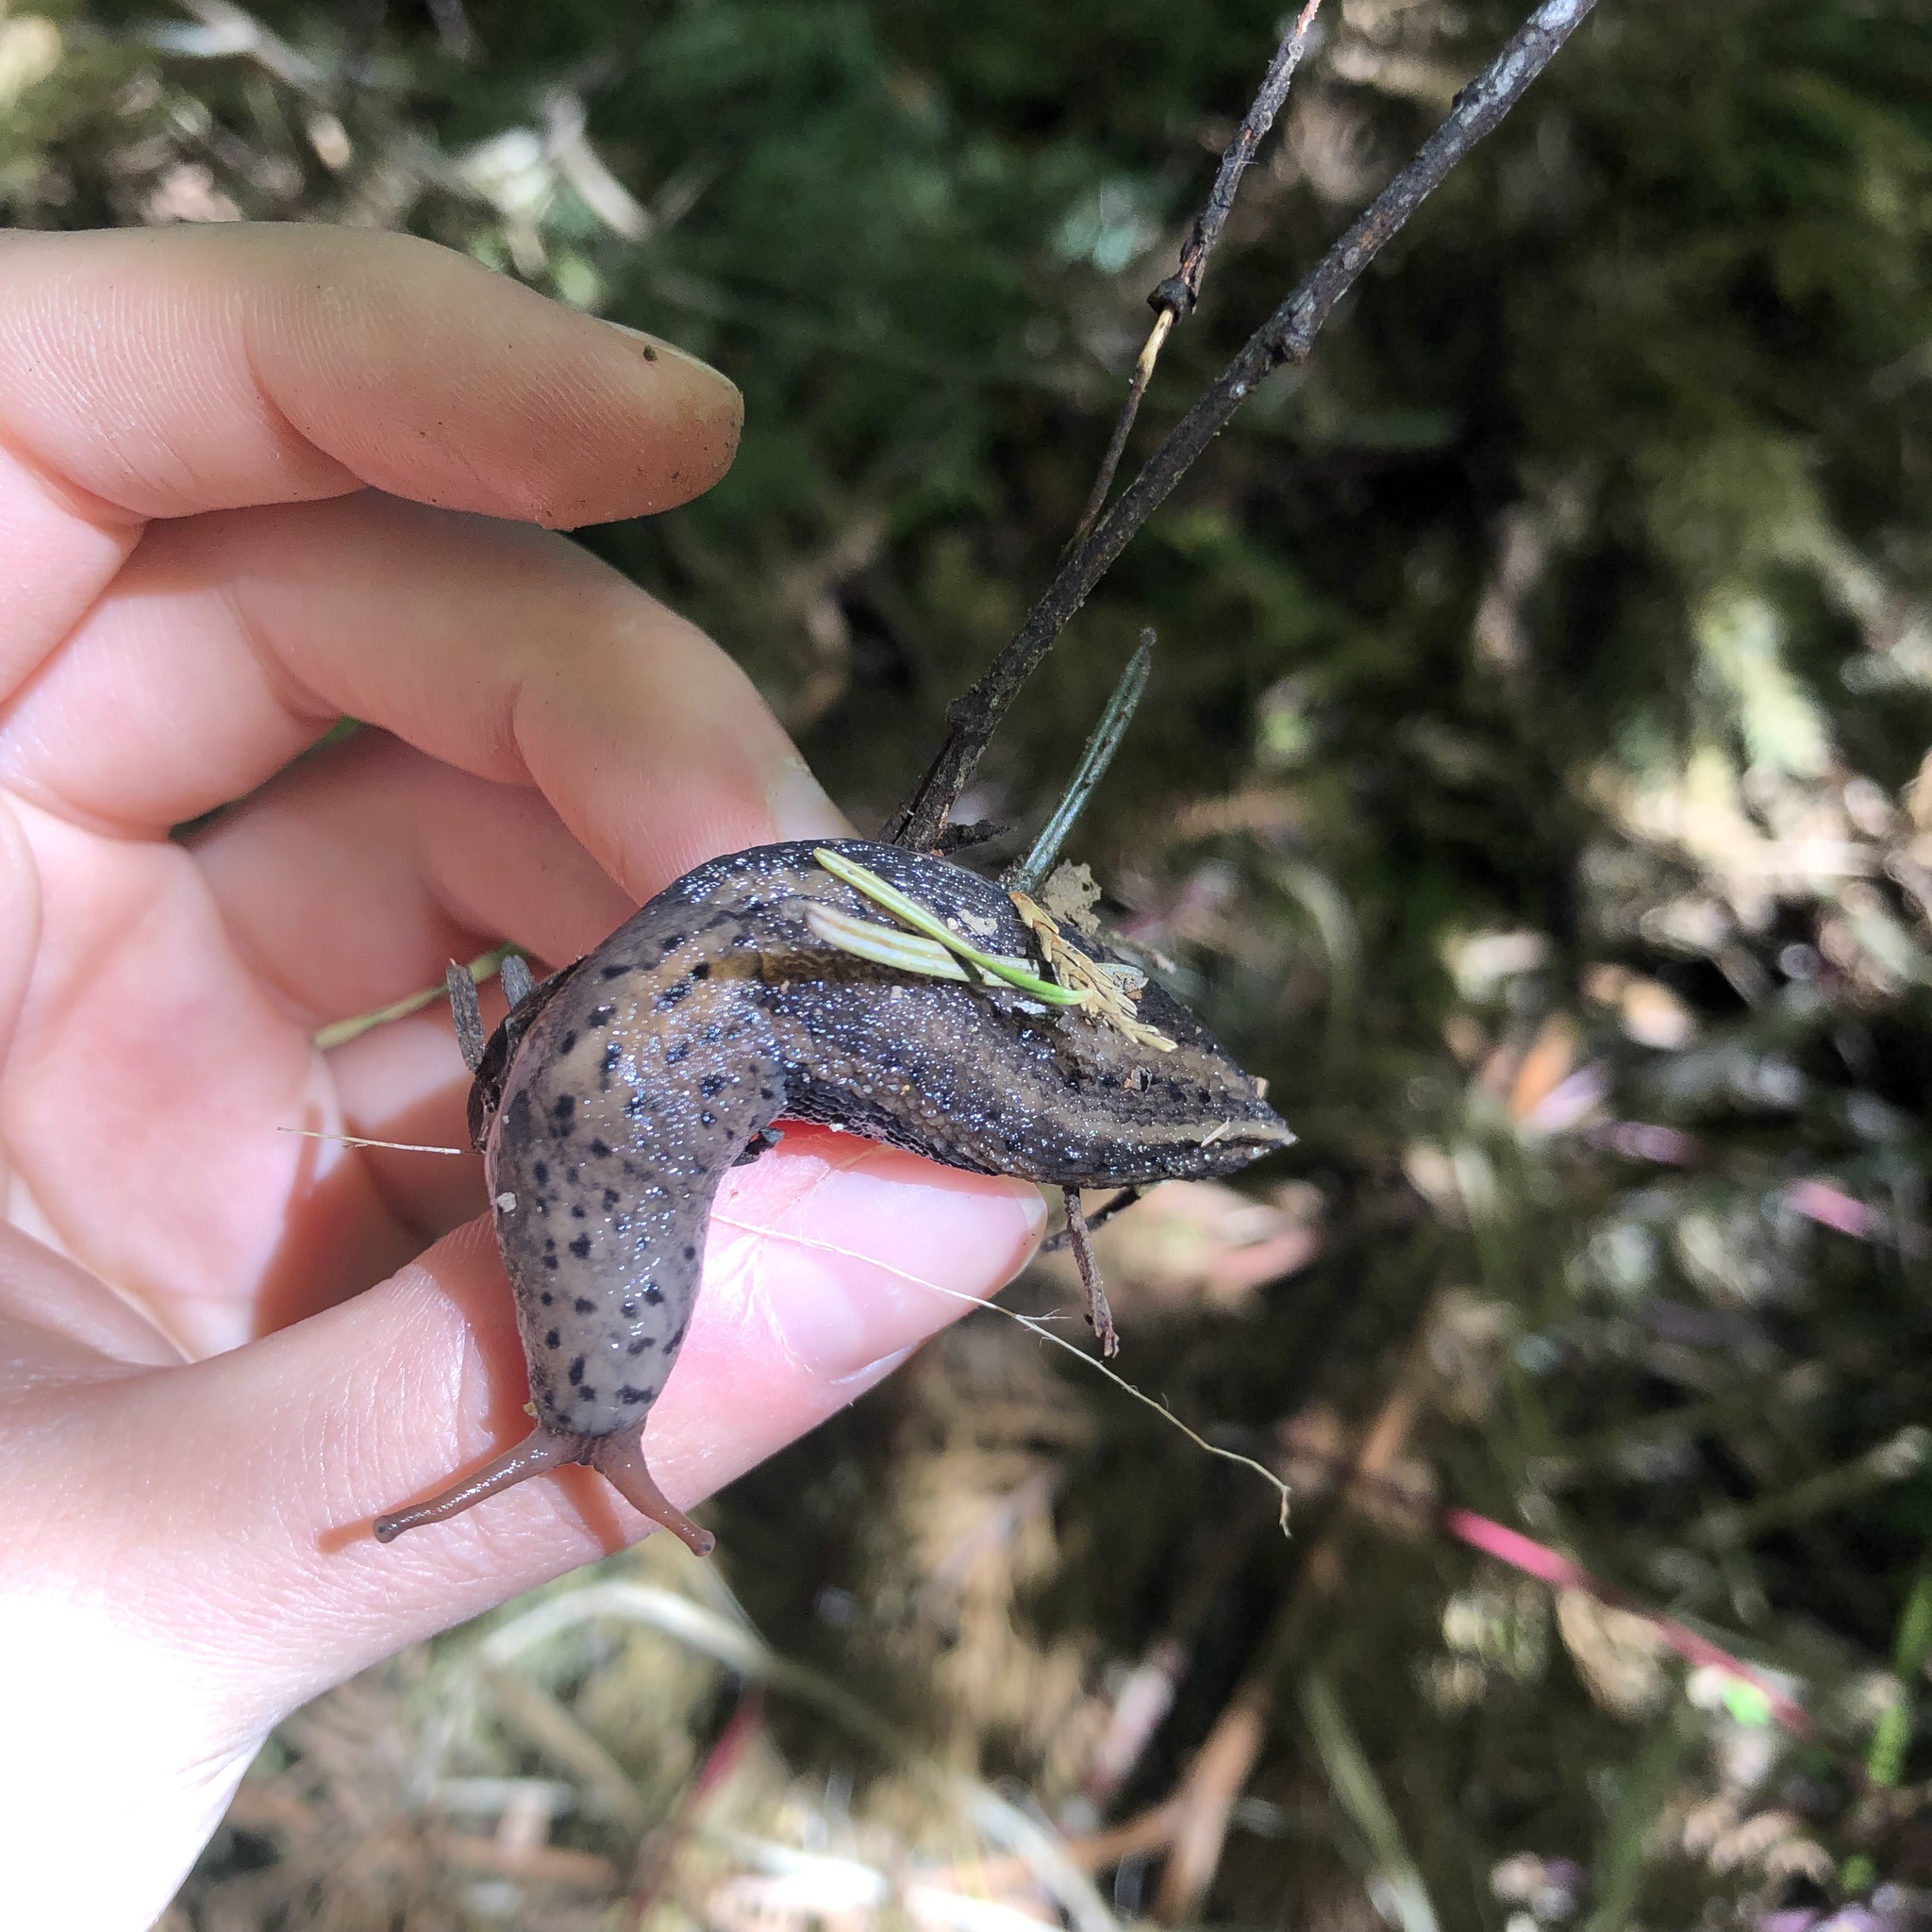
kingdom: Animalia
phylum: Mollusca
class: Gastropoda
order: Stylommatophora
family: Limacidae
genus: Limax
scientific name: Limax maximus
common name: Great grey slug
